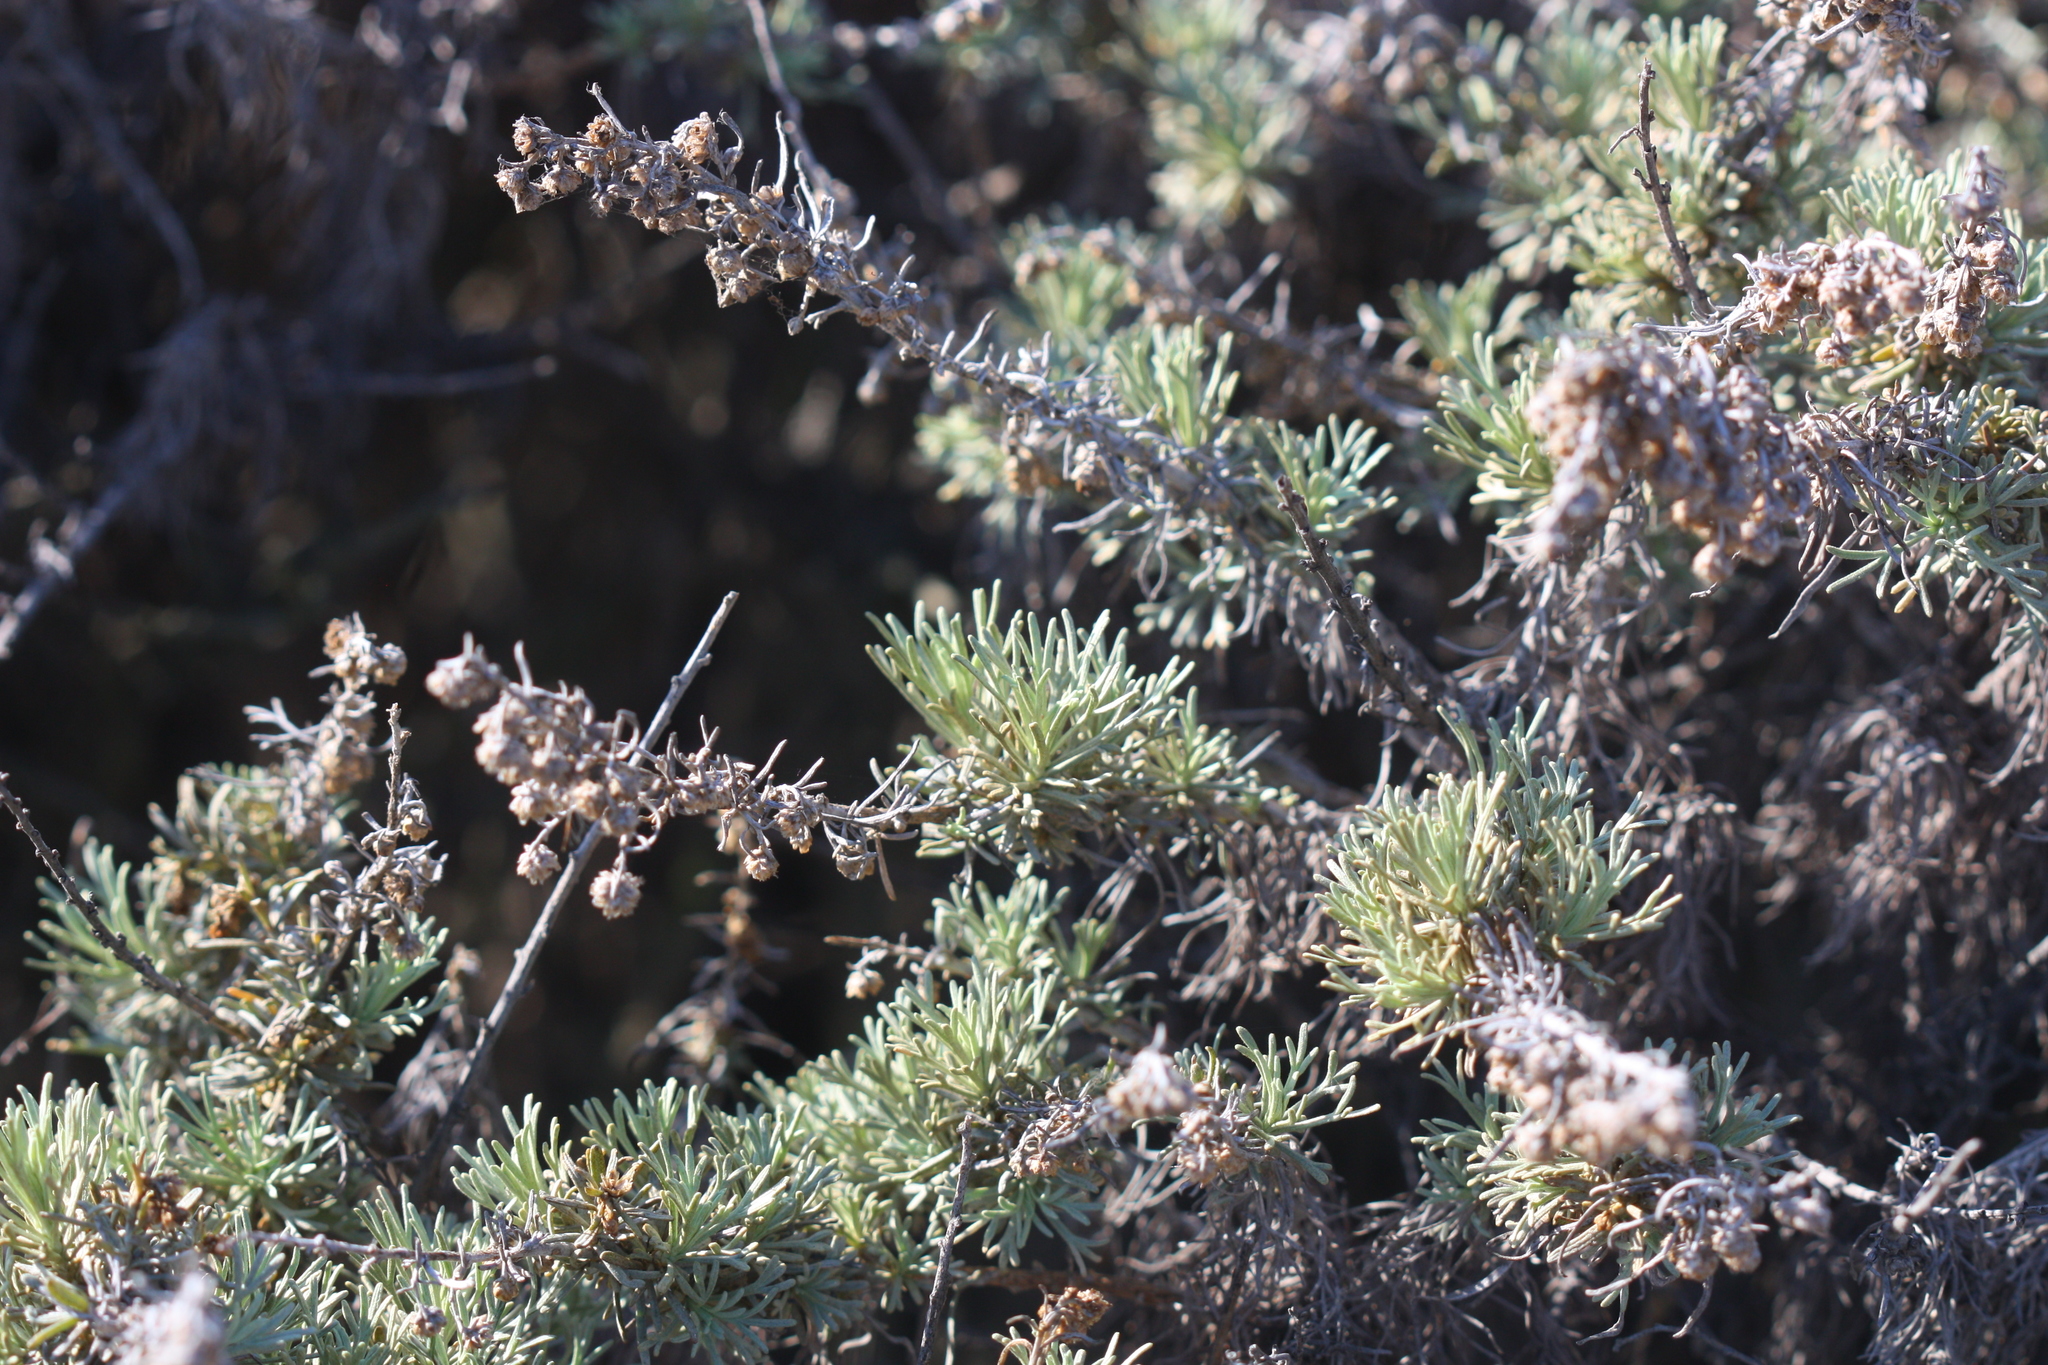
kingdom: Plantae
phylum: Tracheophyta
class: Magnoliopsida
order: Asterales
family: Asteraceae
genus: Artemisia
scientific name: Artemisia californica
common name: California sagebrush
